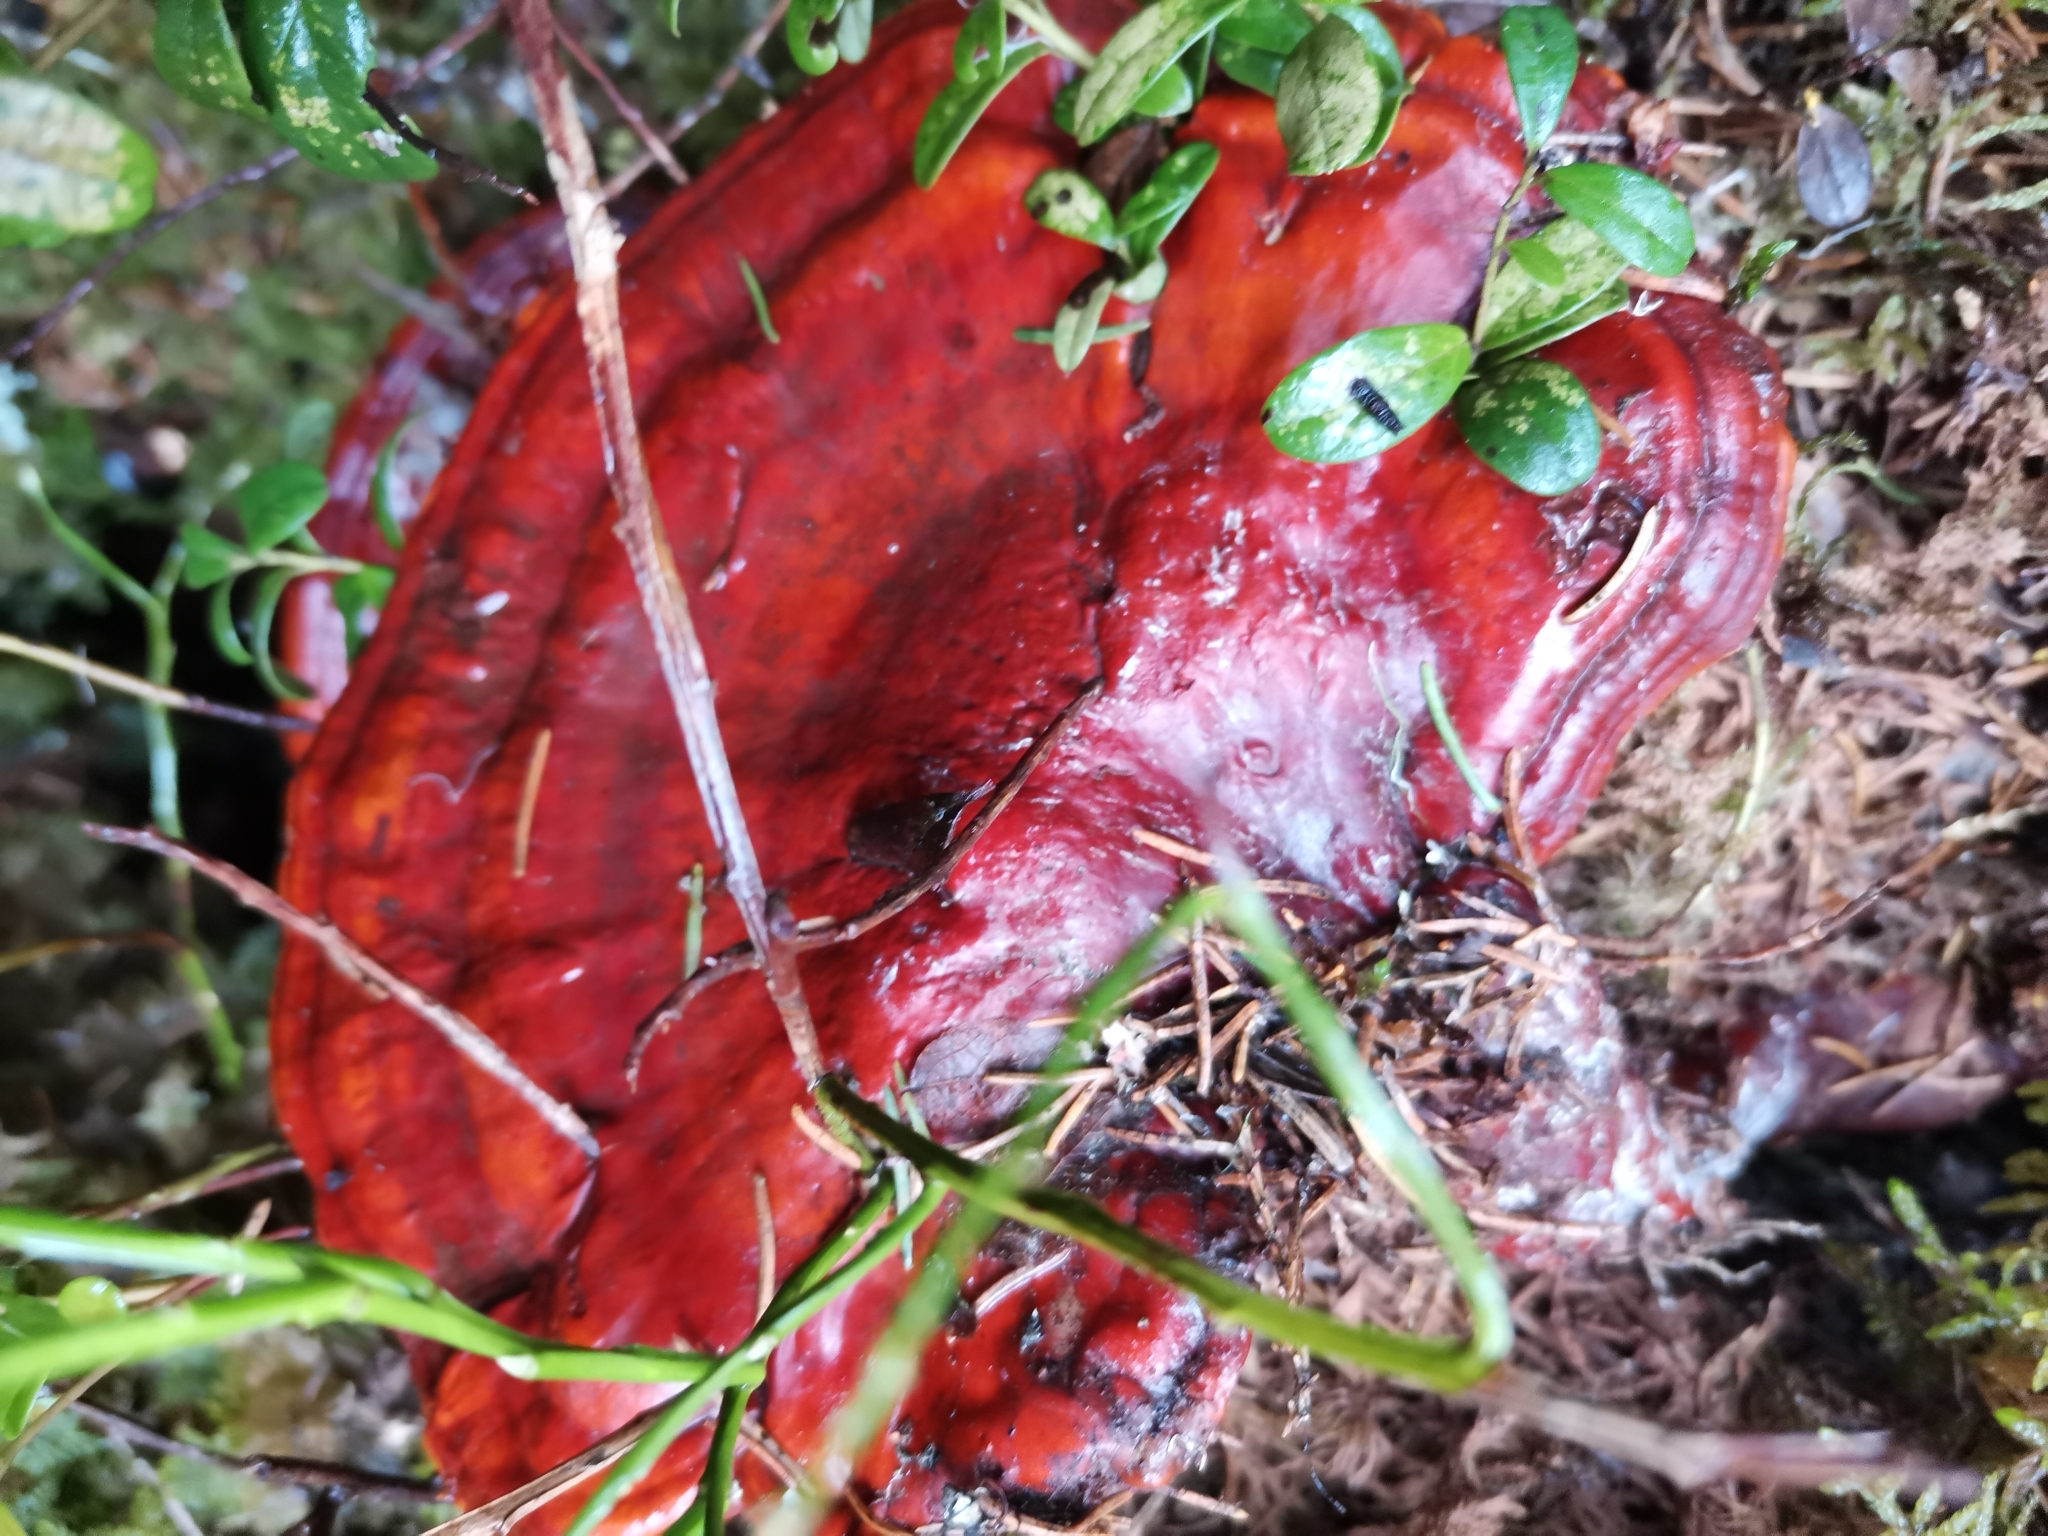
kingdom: Fungi
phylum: Basidiomycota
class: Agaricomycetes
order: Polyporales
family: Polyporaceae
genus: Ganoderma
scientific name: Ganoderma lucidum
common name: Lacquered bracket
